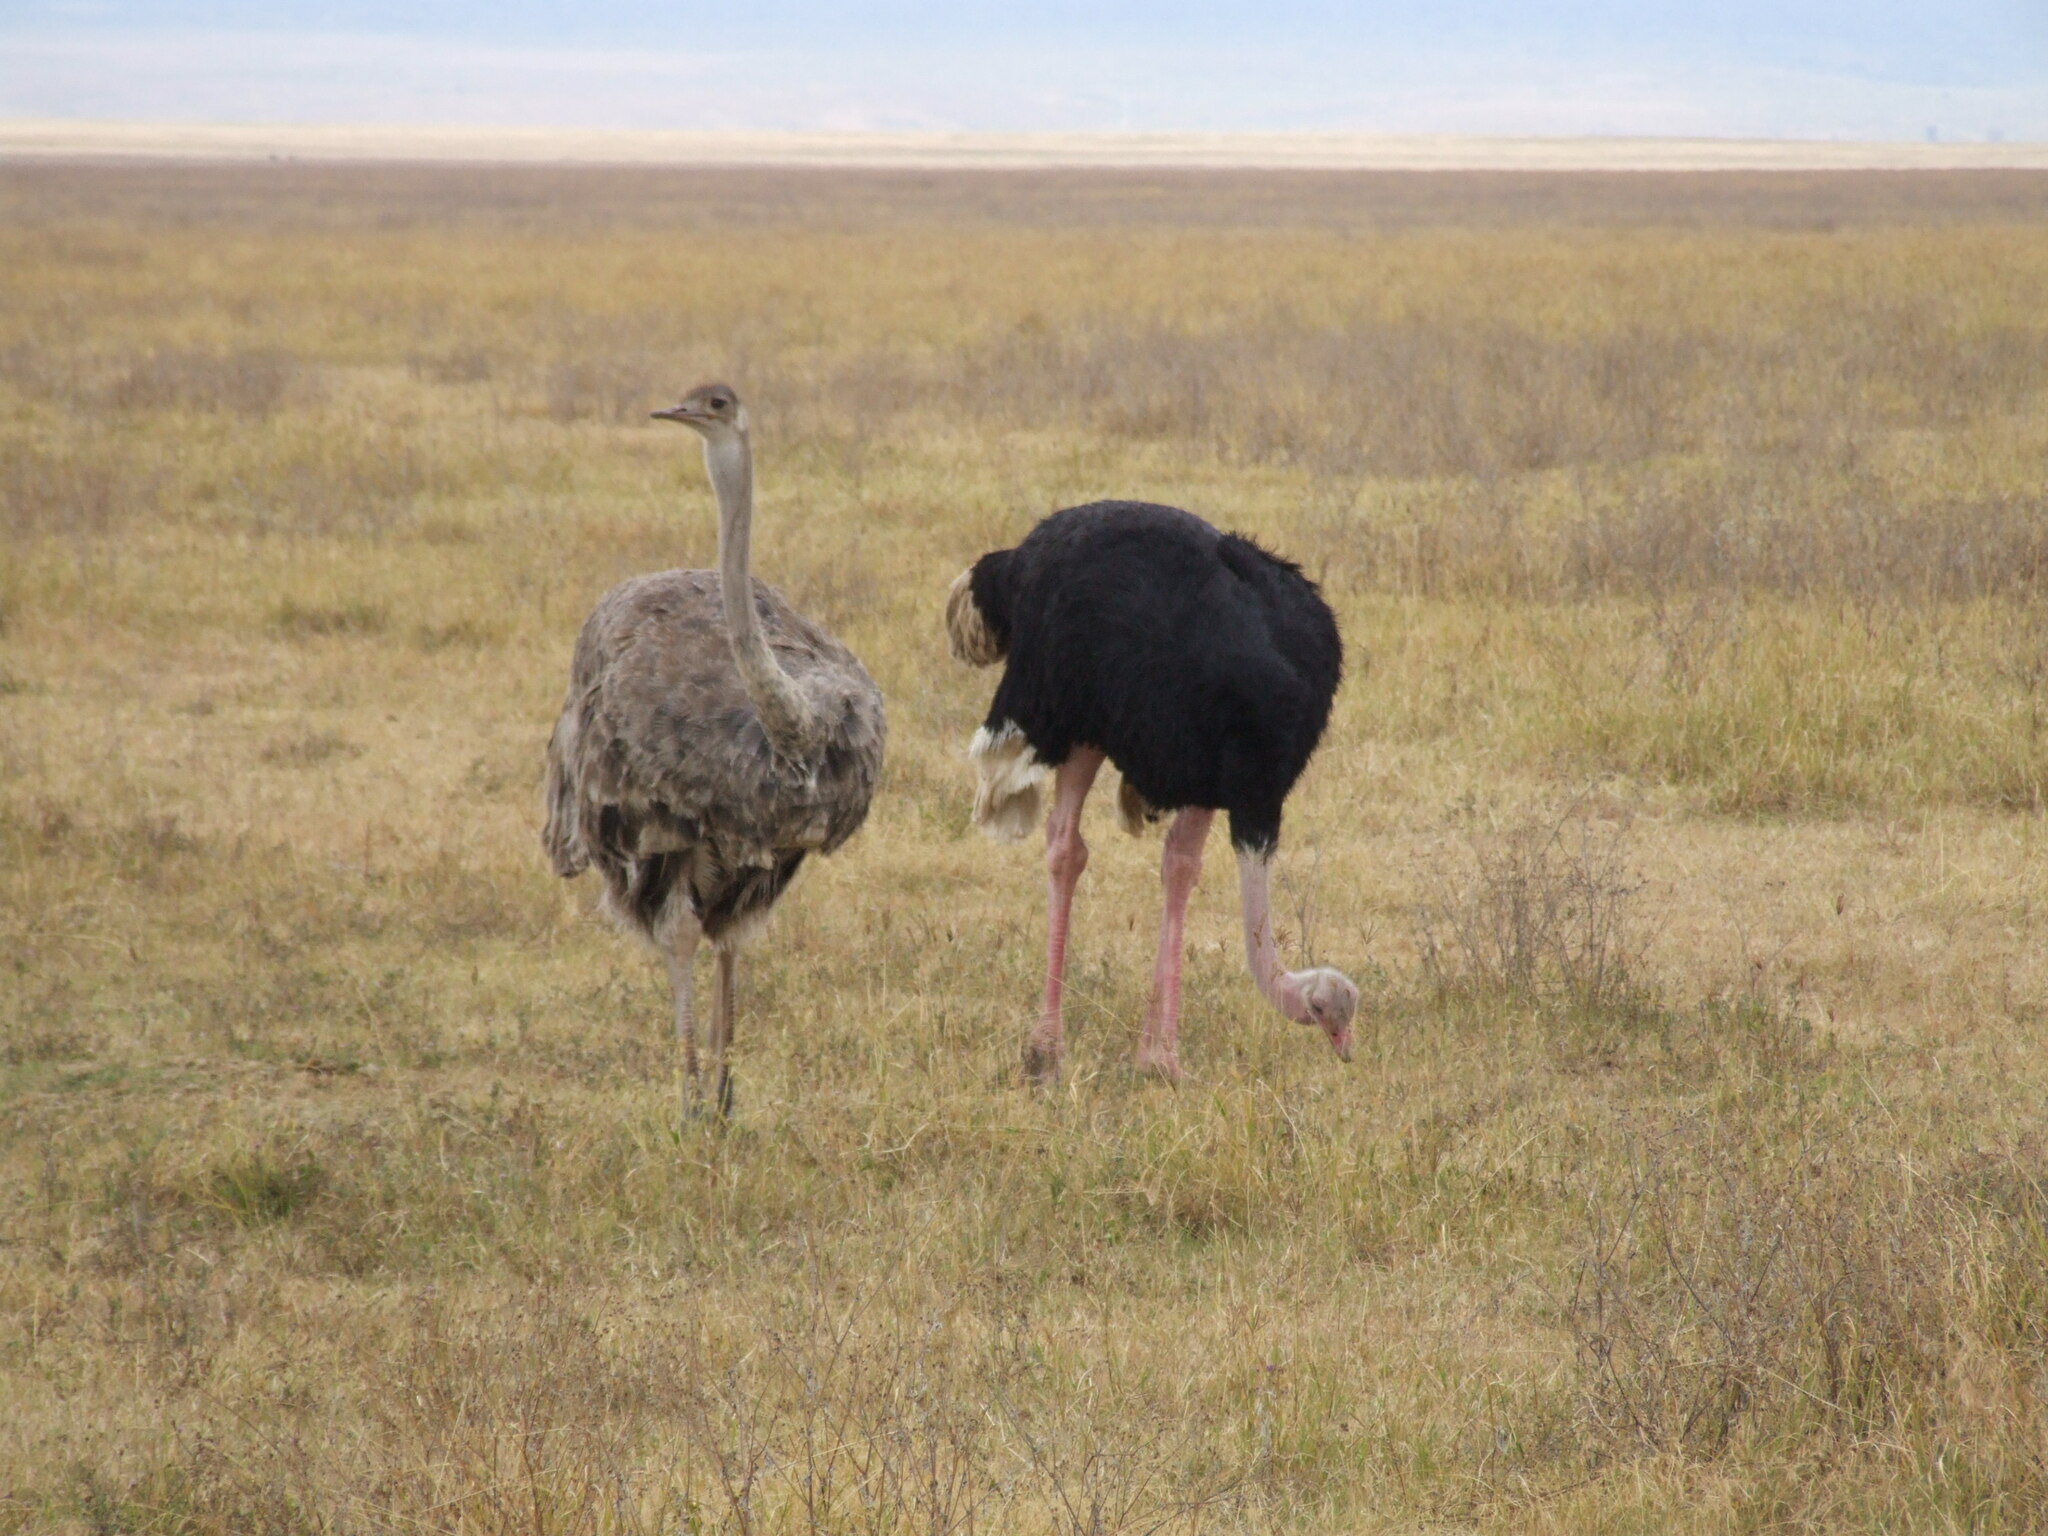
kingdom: Animalia
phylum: Chordata
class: Aves
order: Struthioniformes
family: Struthionidae
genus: Struthio
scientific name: Struthio camelus
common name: Common ostrich
